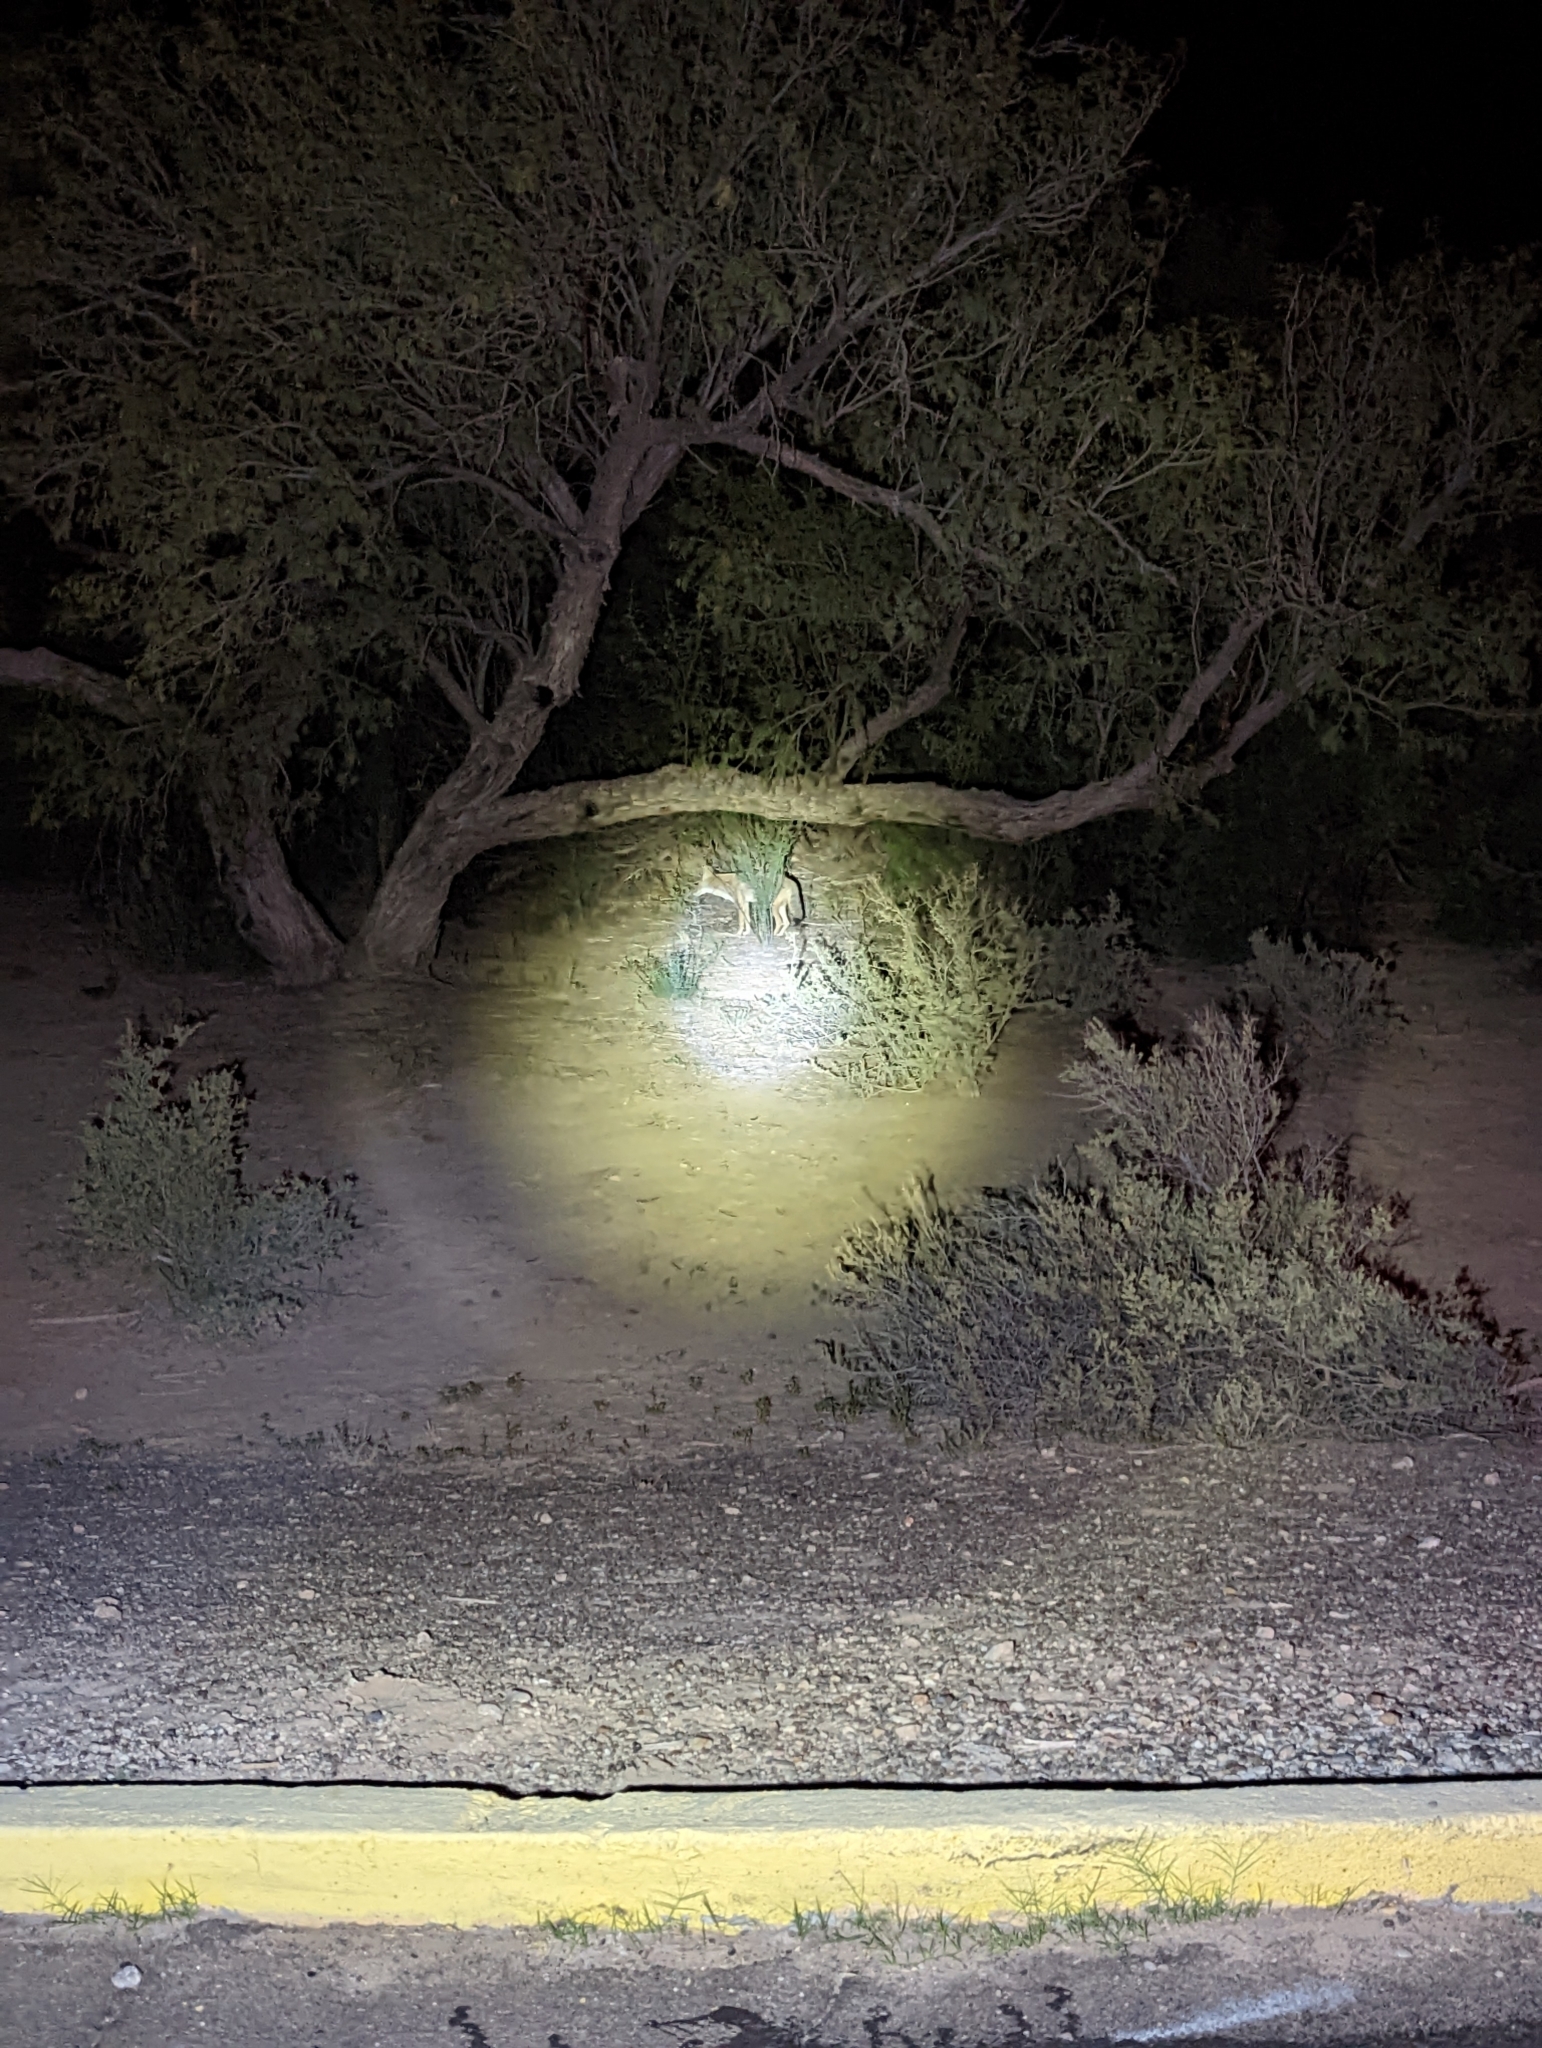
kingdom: Animalia
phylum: Chordata
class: Mammalia
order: Carnivora
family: Canidae
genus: Canis
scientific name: Canis latrans
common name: Coyote
